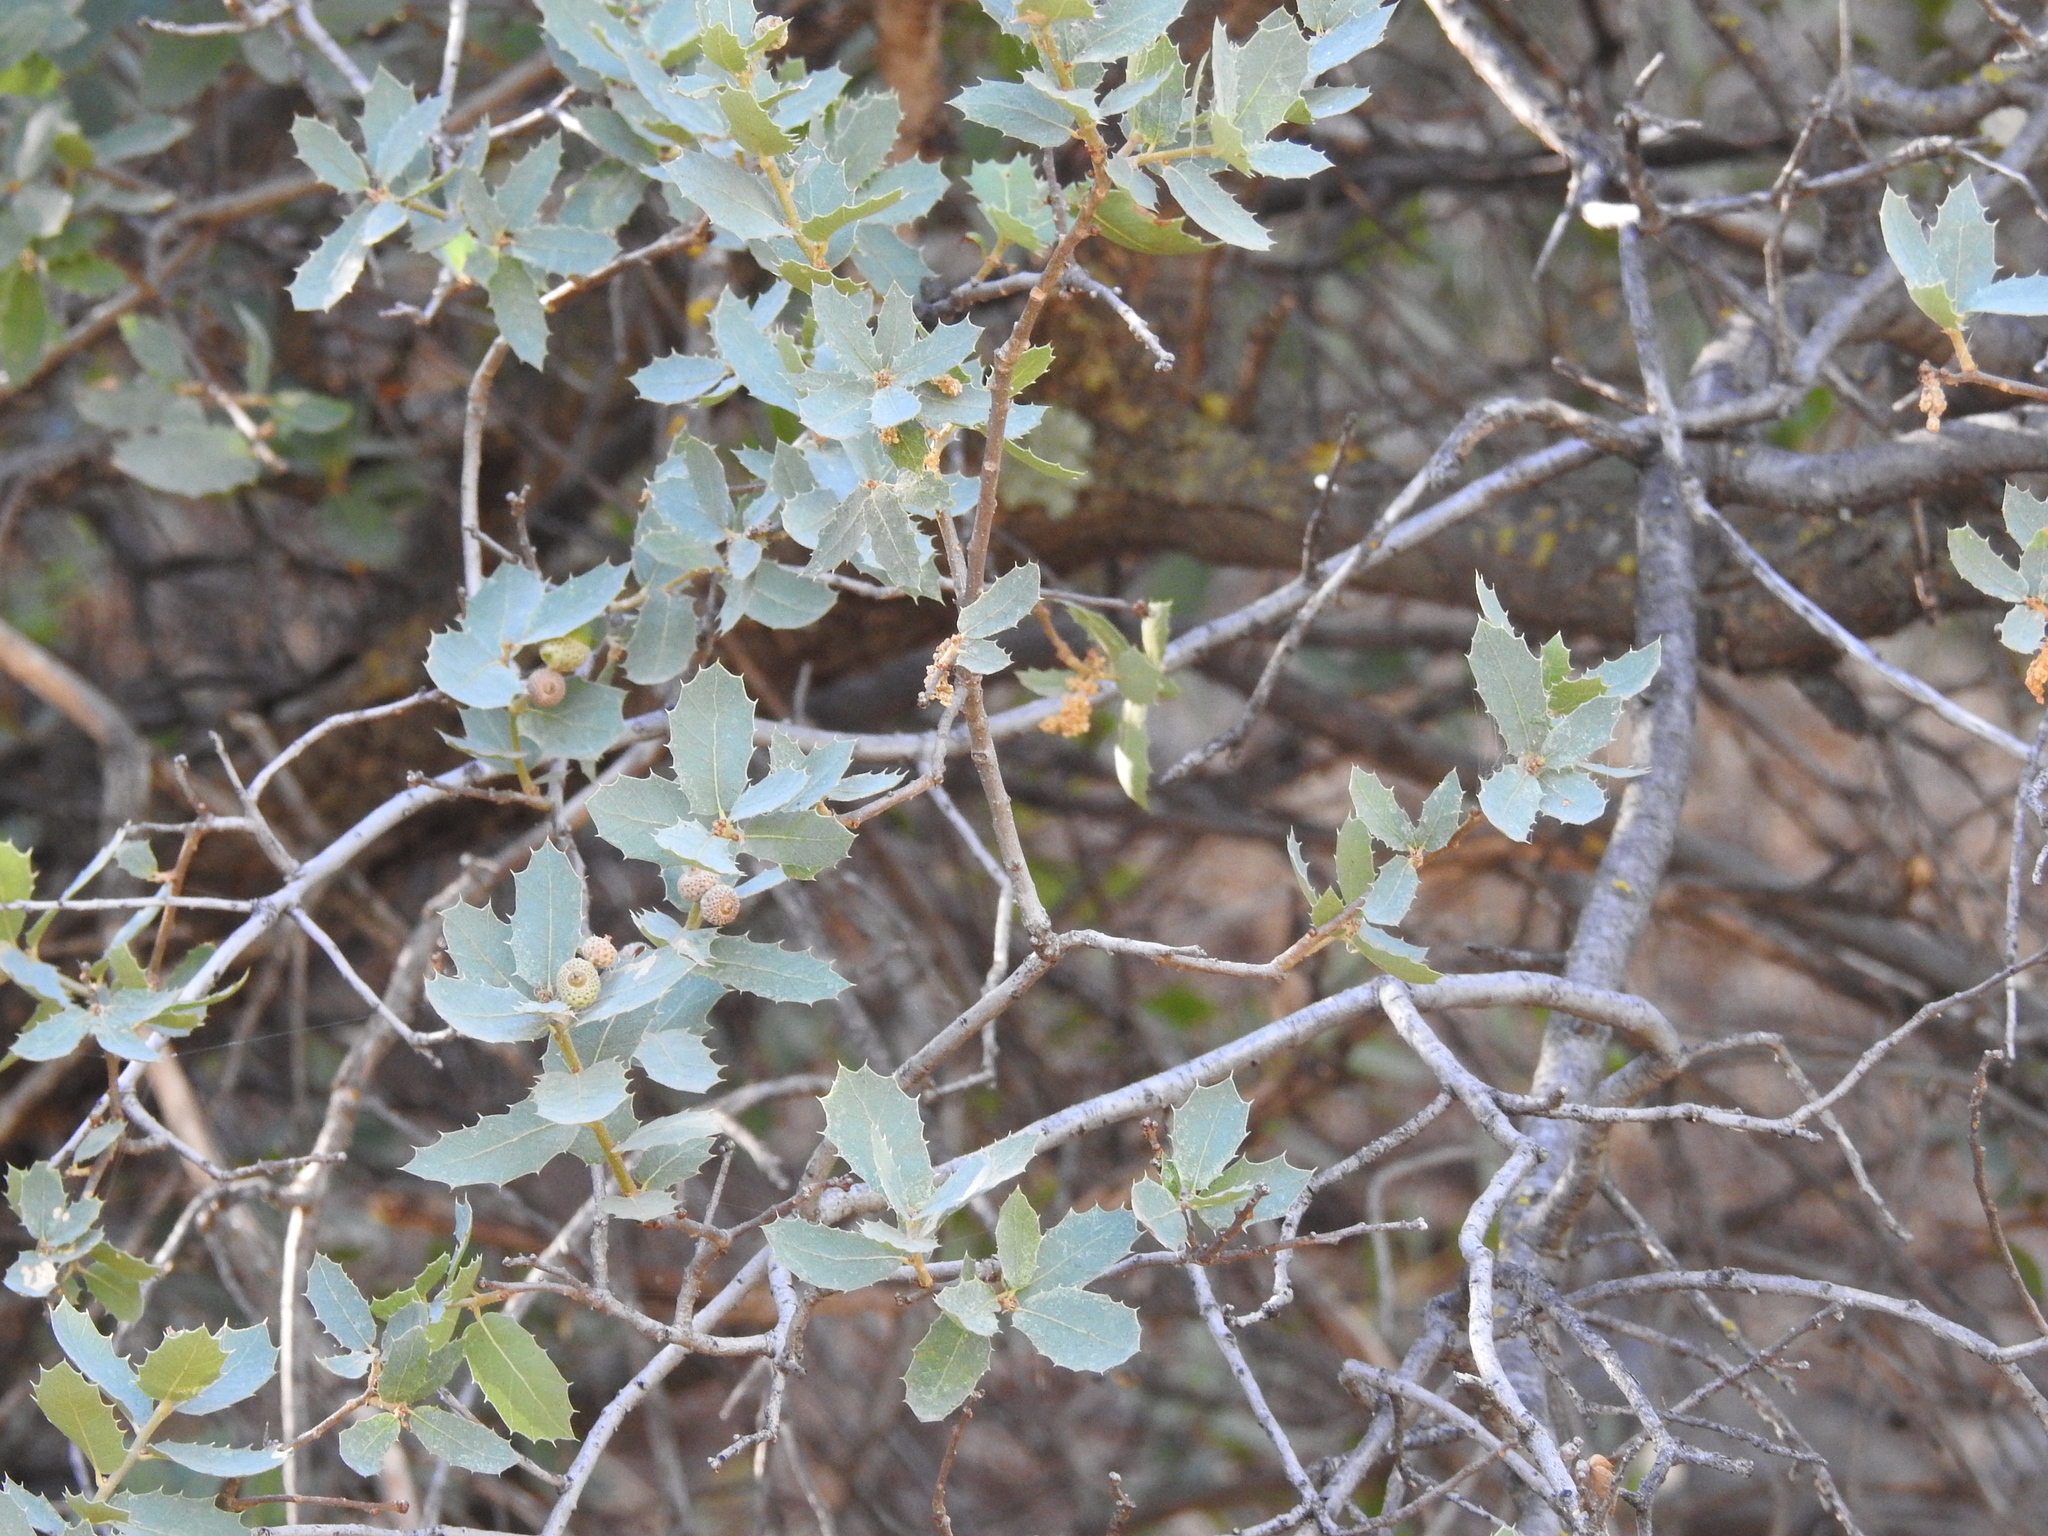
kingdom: Plantae
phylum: Tracheophyta
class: Magnoliopsida
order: Fagales
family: Fagaceae
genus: Quercus
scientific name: Quercus turbinella
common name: Sonoran scrub oak
